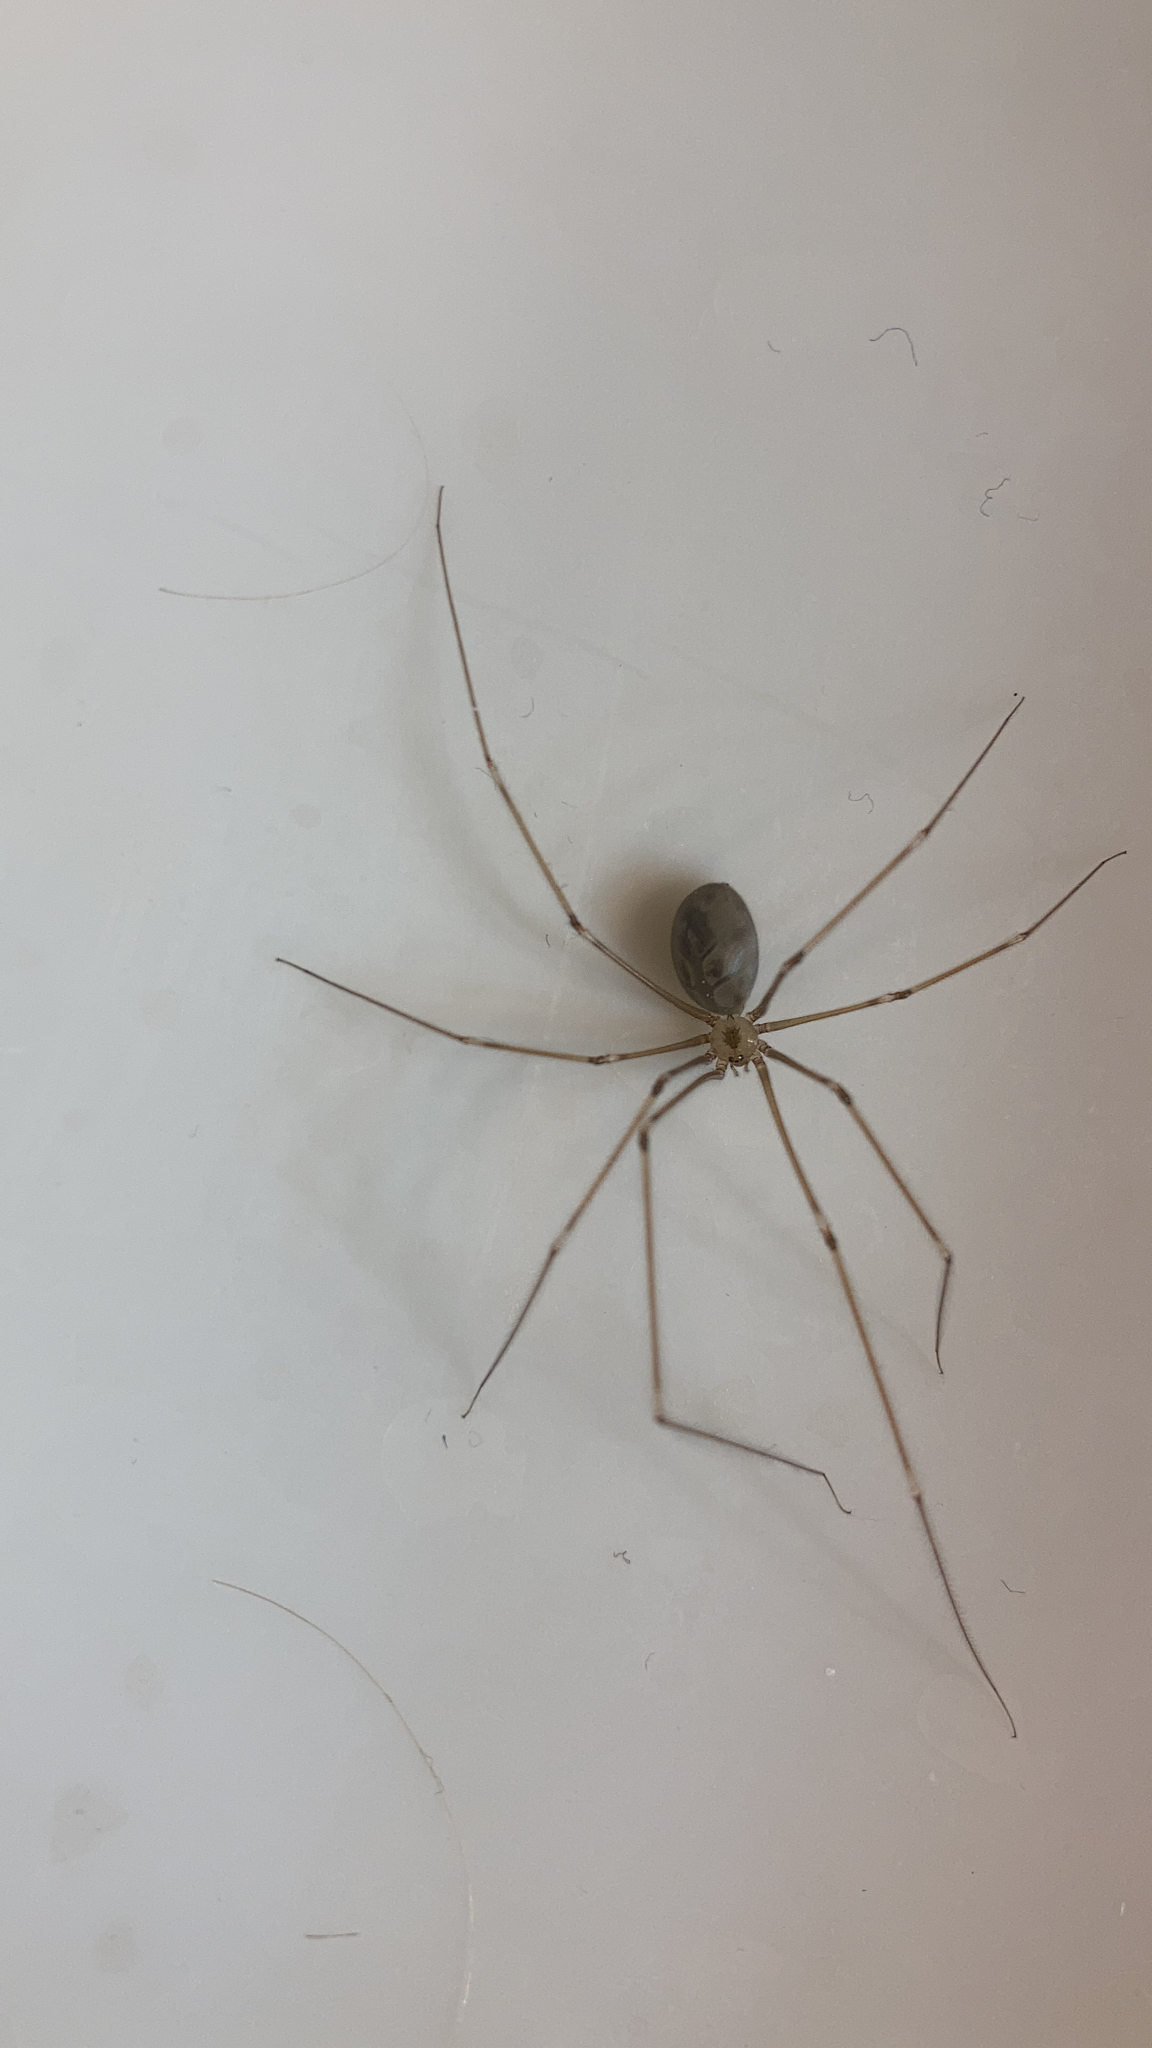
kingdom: Animalia
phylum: Arthropoda
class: Arachnida
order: Araneae
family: Pholcidae
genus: Pholcus
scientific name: Pholcus phalangioides
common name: Longbodied cellar spider
